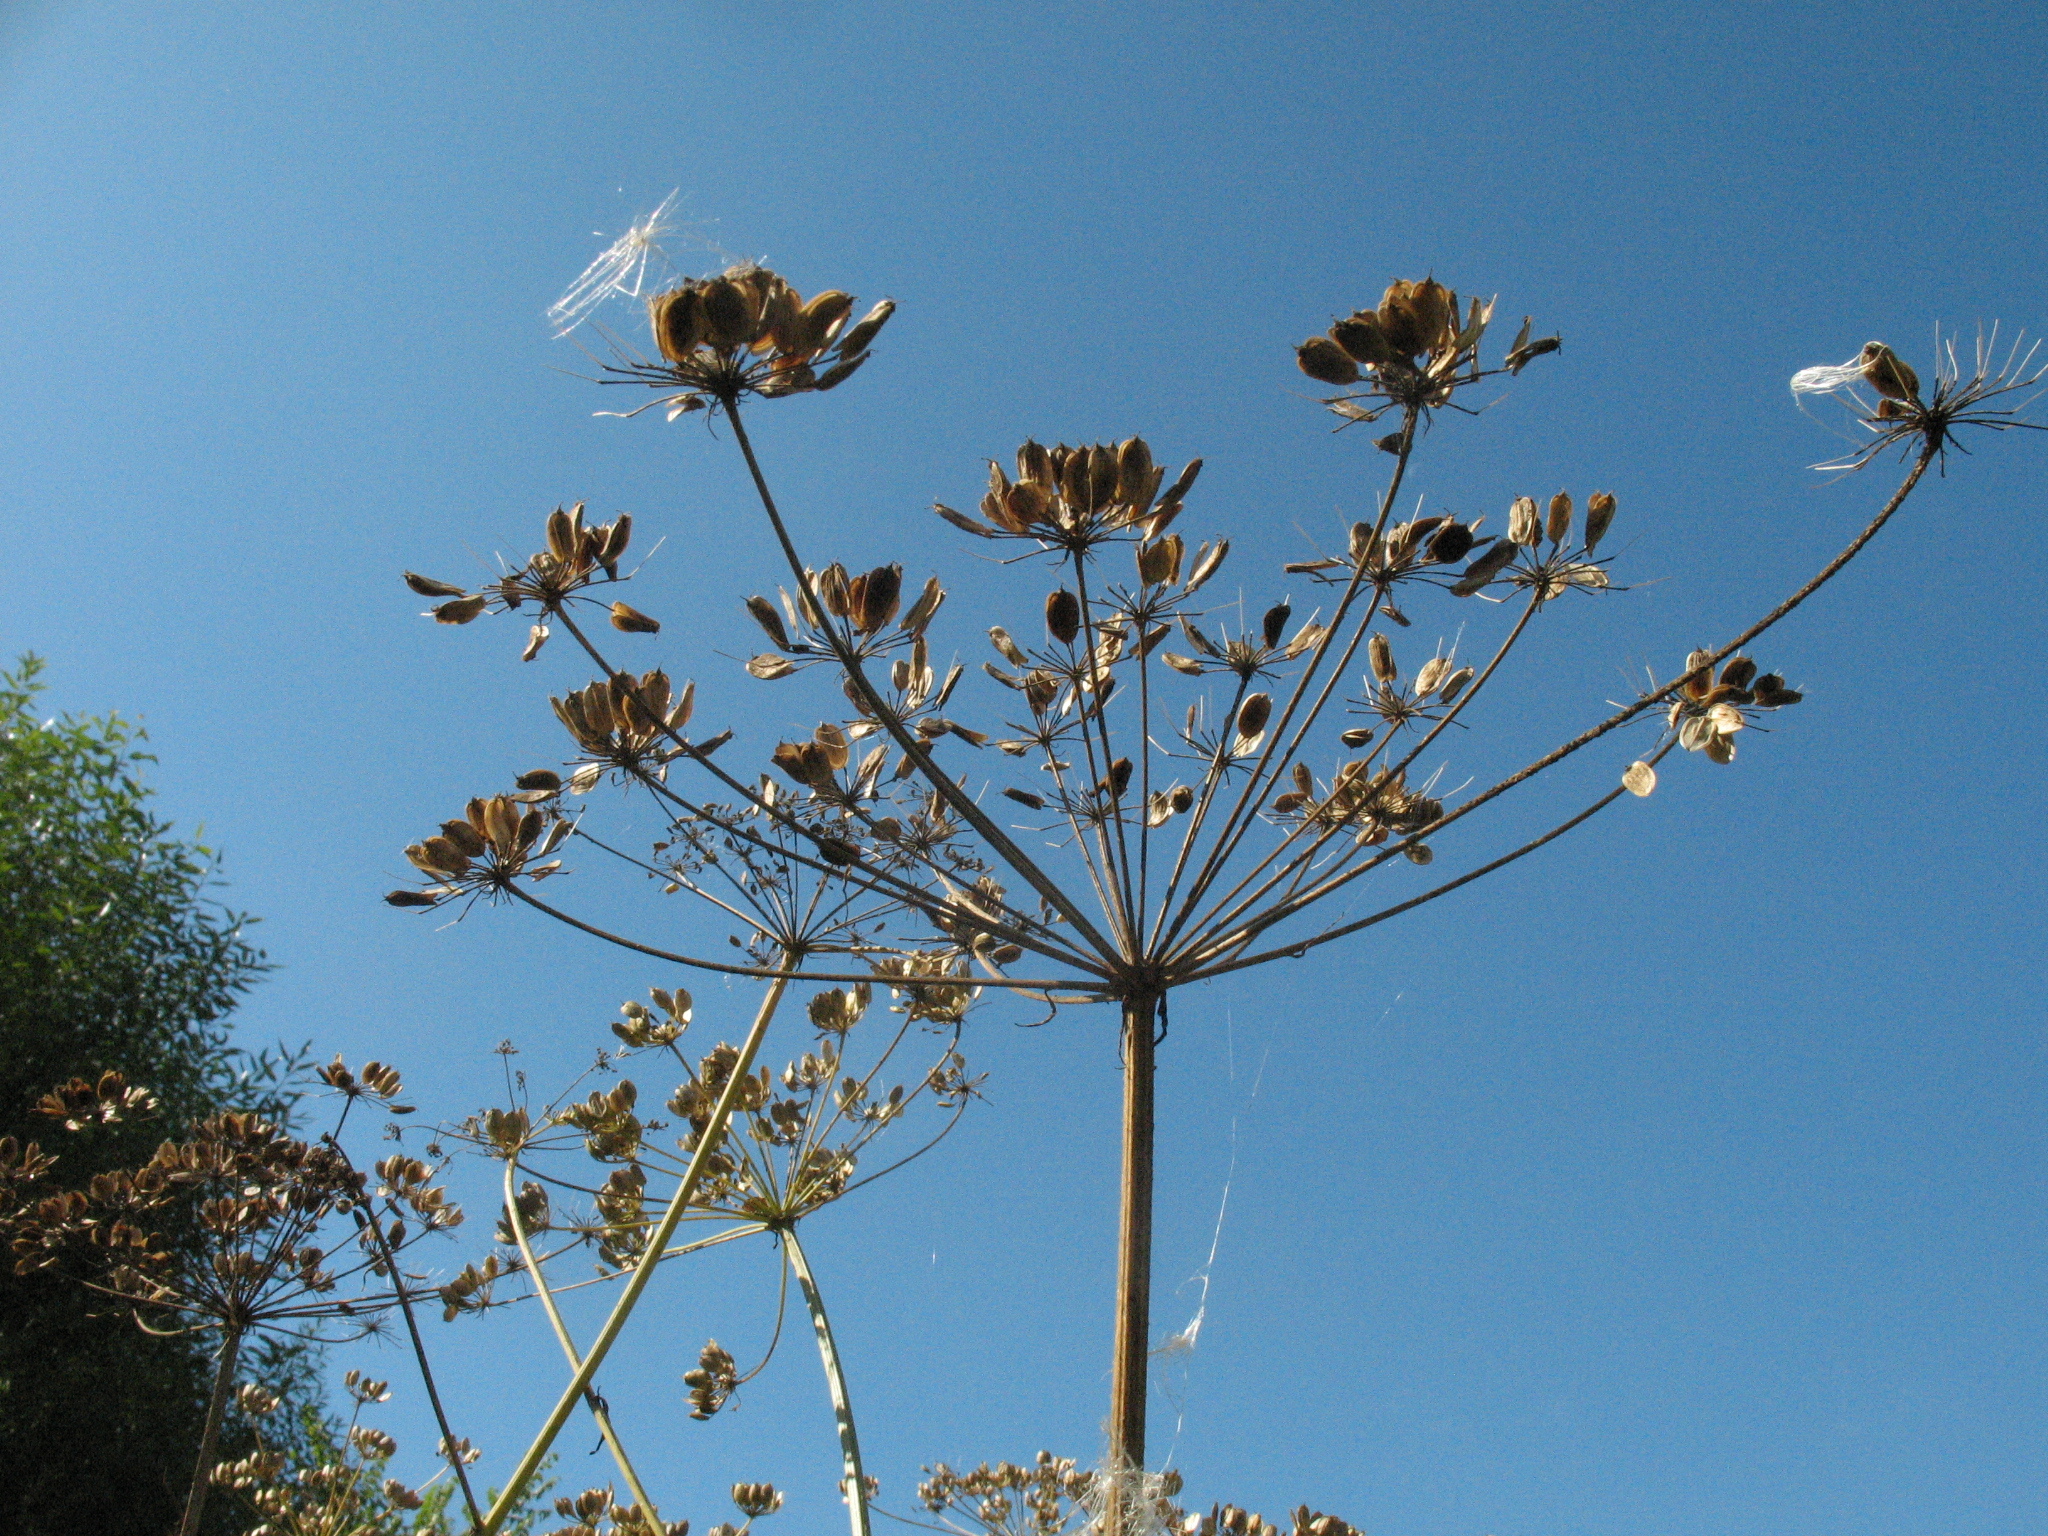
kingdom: Plantae
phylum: Tracheophyta
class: Magnoliopsida
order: Apiales
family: Apiaceae
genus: Heracleum
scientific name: Heracleum sphondylium
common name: Hogweed
